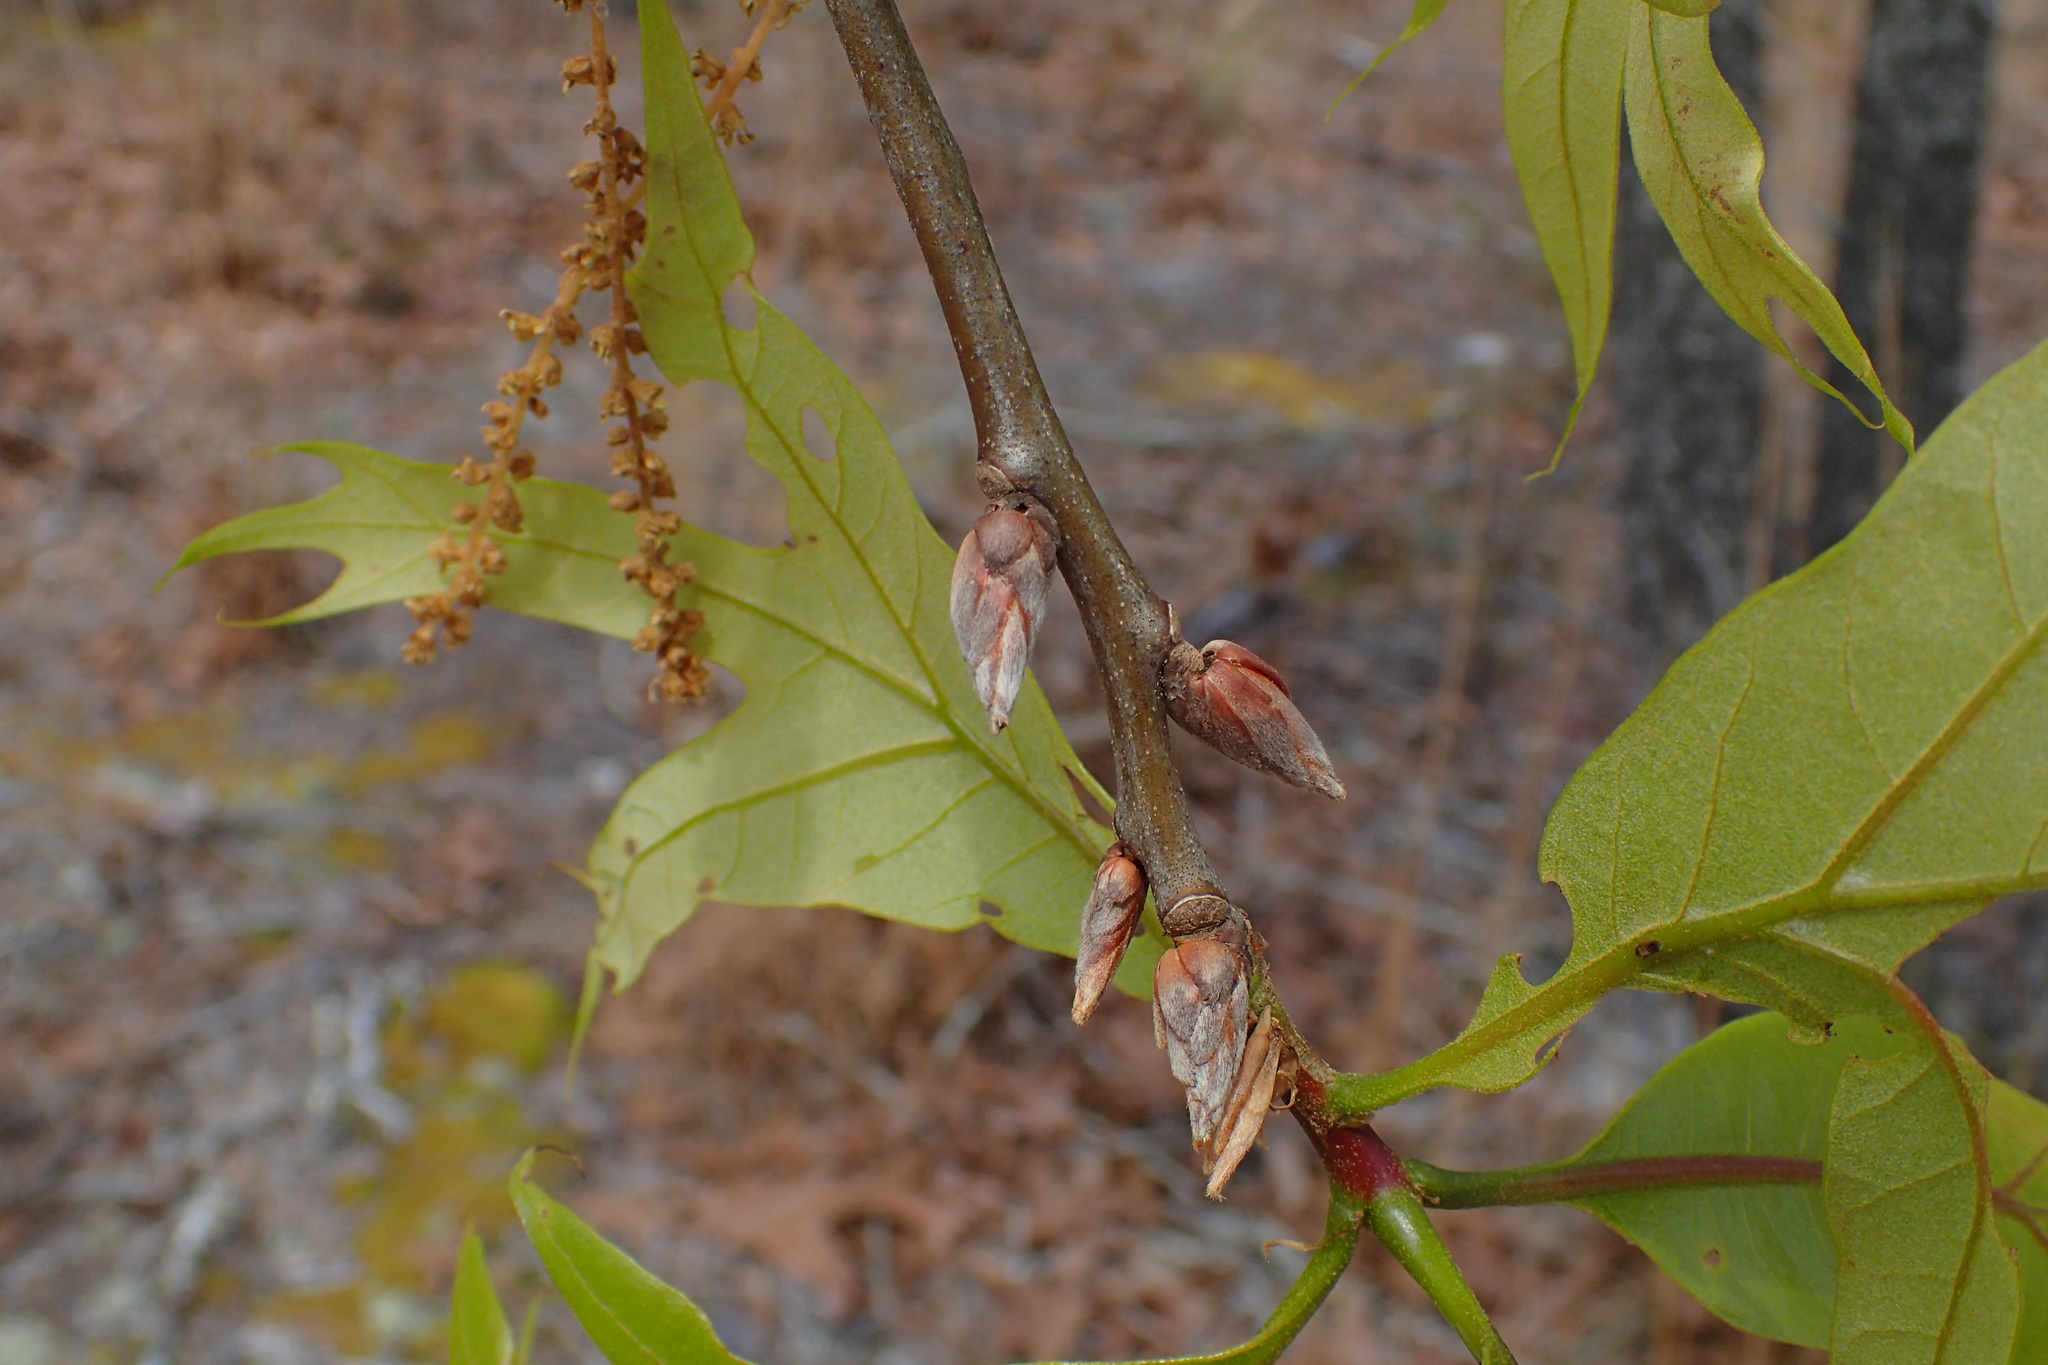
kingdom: Plantae
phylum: Tracheophyta
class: Magnoliopsida
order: Fagales
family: Fagaceae
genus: Quercus
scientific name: Quercus laevis
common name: Turkey oak
